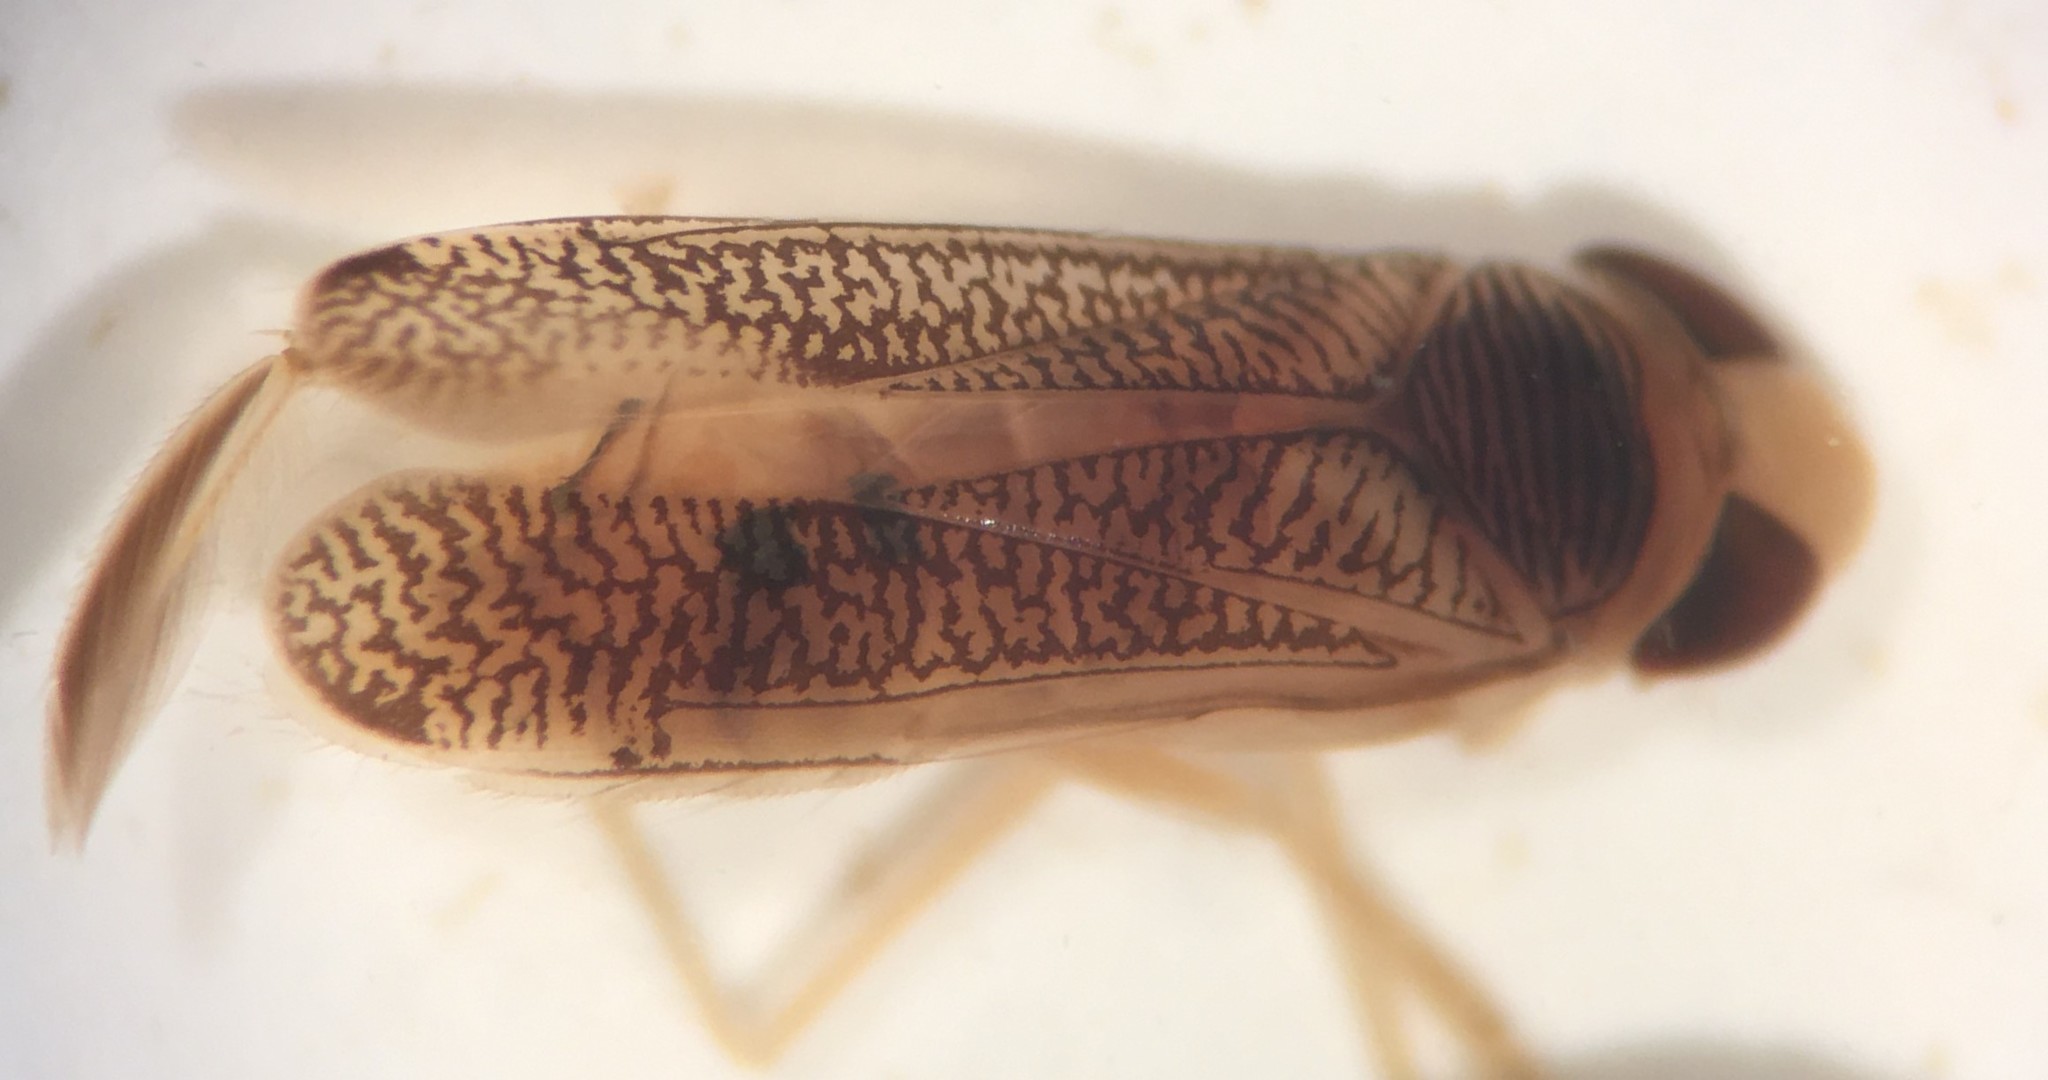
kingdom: Animalia
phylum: Arthropoda
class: Insecta
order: Hemiptera
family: Corixidae
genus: Trichocorixa
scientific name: Trichocorixa calva
